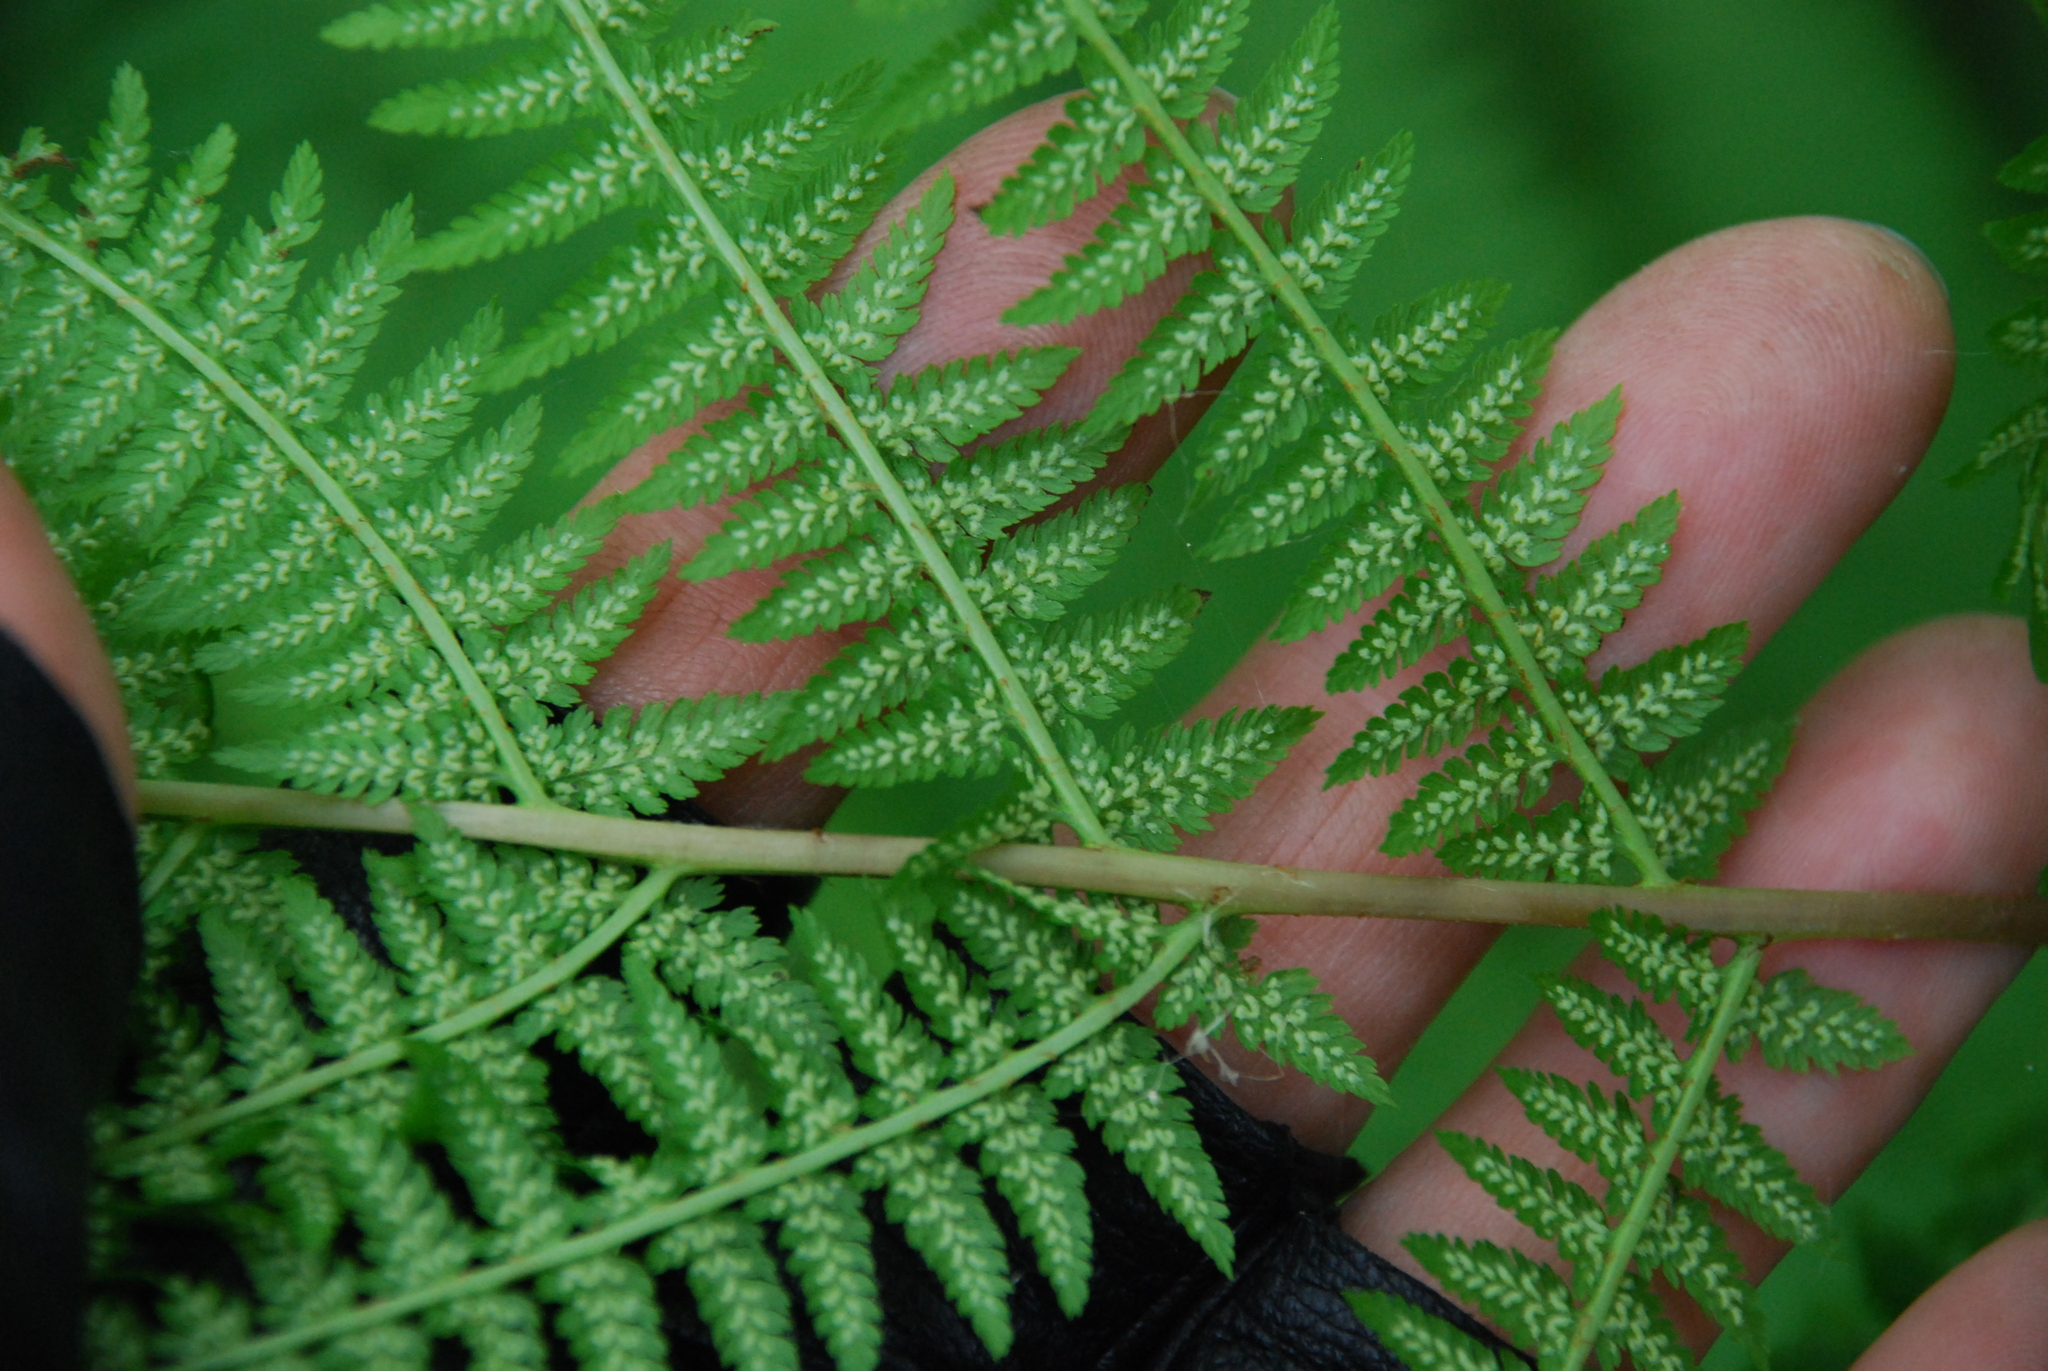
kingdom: Plantae
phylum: Tracheophyta
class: Polypodiopsida
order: Polypodiales
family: Athyriaceae
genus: Athyrium
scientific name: Athyrium filix-femina
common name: Lady fern
